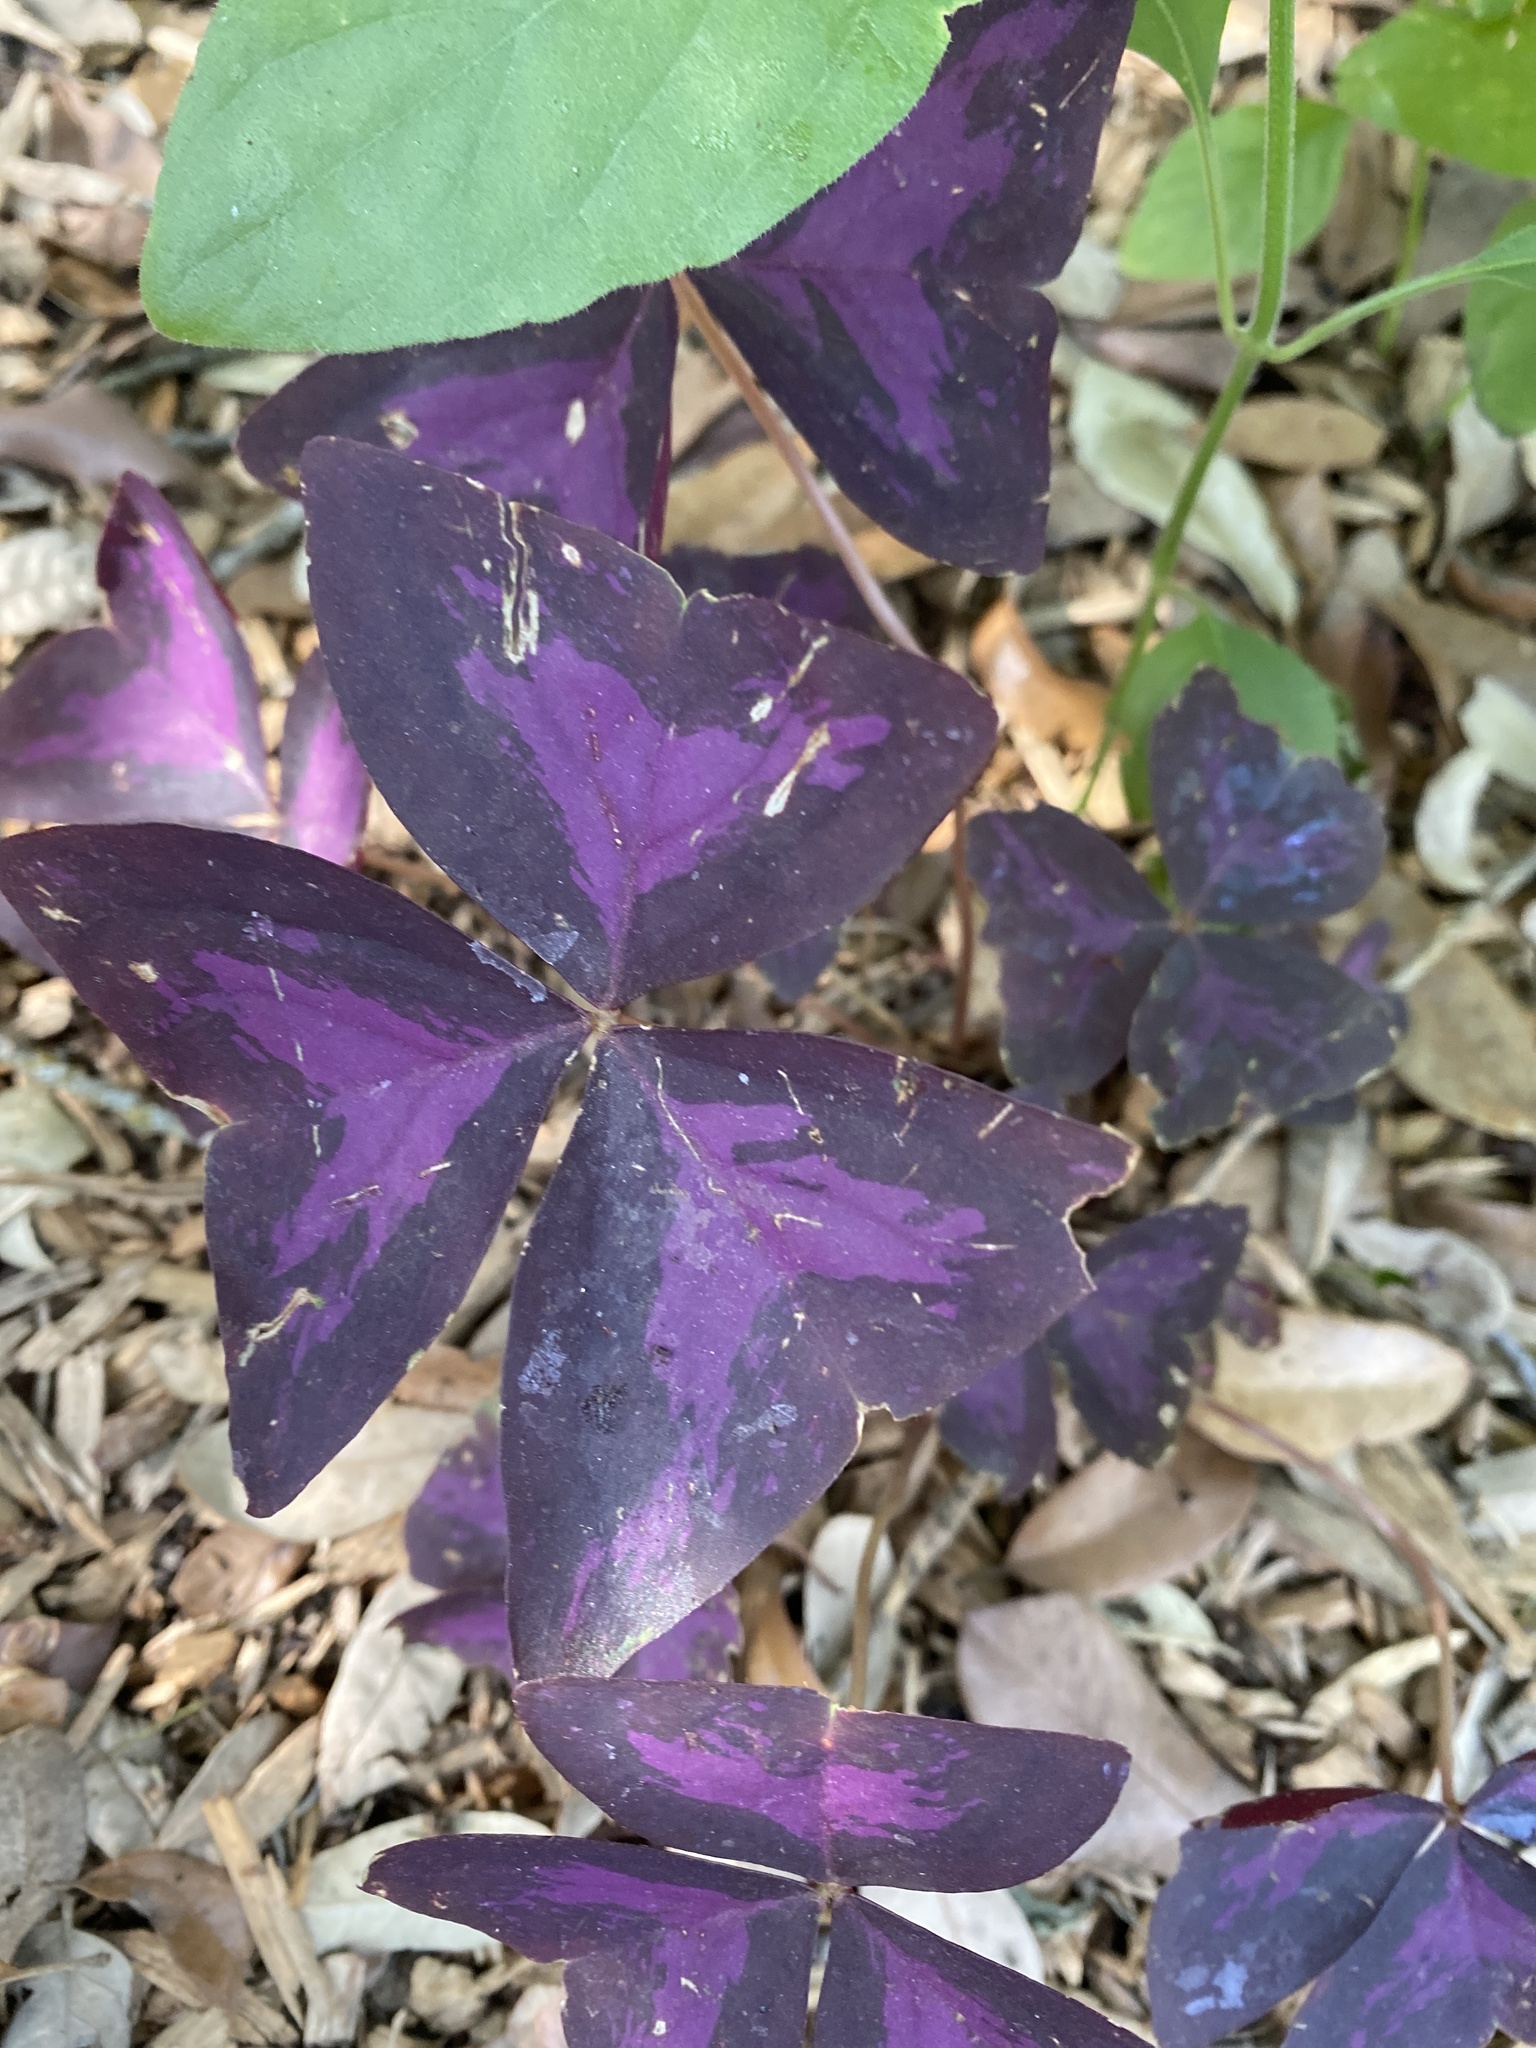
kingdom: Plantae
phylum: Tracheophyta
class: Magnoliopsida
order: Oxalidales
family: Oxalidaceae
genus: Oxalis
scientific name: Oxalis triangularis
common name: Wood sorrel
